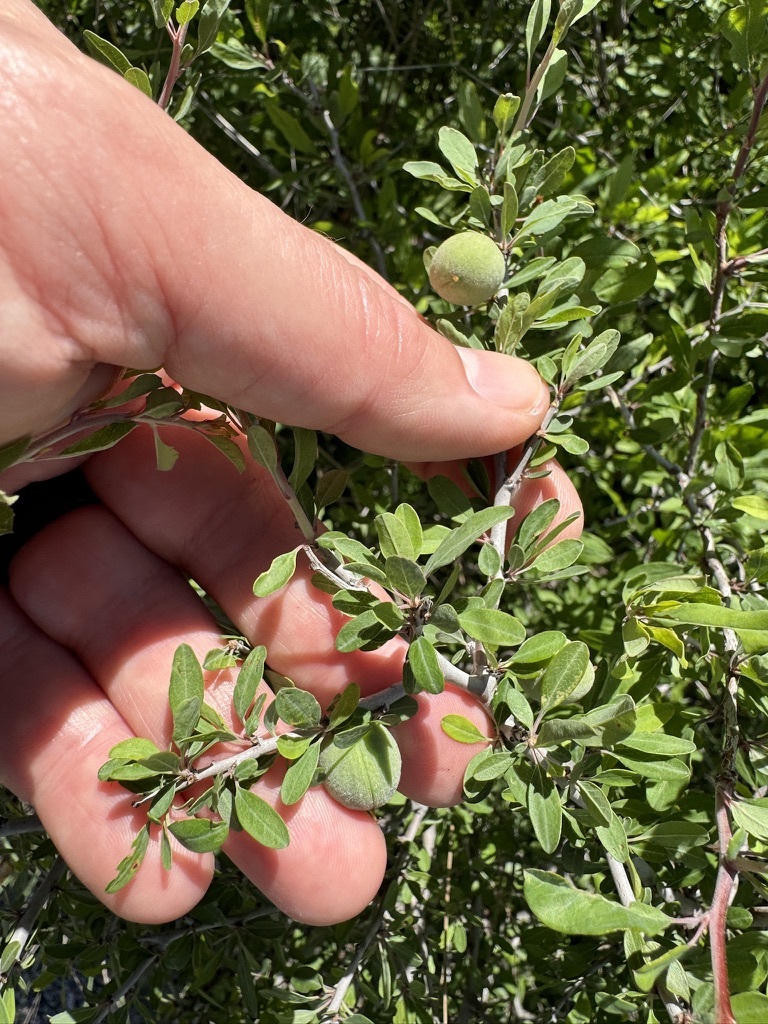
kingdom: Plantae
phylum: Tracheophyta
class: Magnoliopsida
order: Rosales
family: Rosaceae
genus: Prunus
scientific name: Prunus minutiflora
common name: Texas almond
